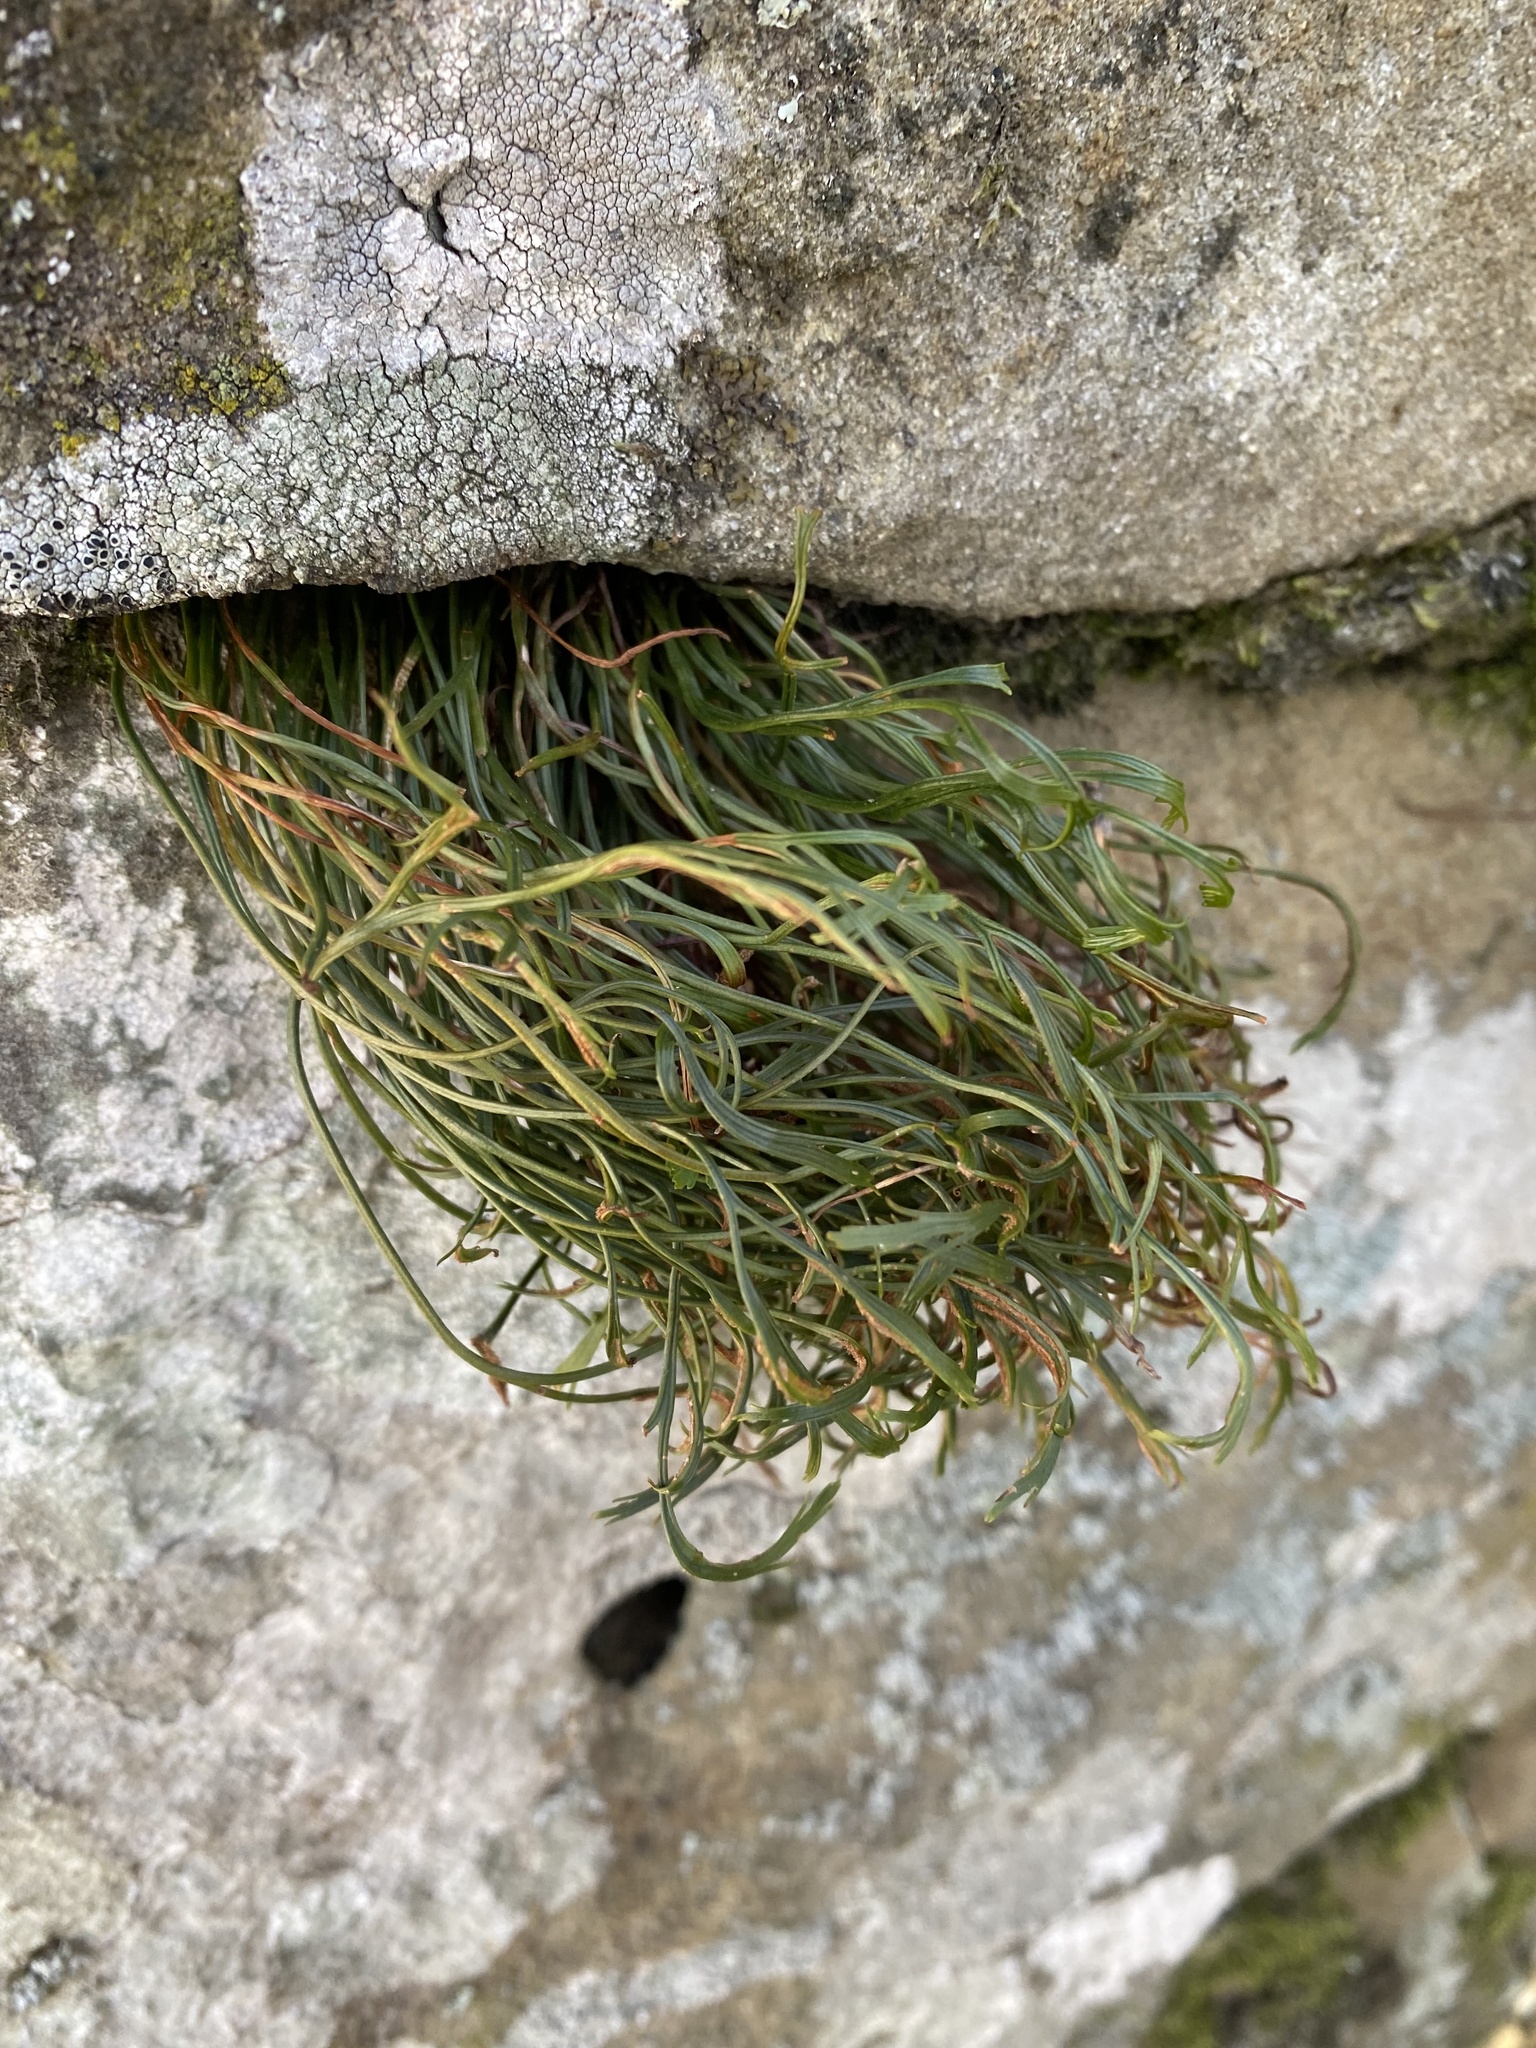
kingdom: Plantae
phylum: Tracheophyta
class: Polypodiopsida
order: Polypodiales
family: Aspleniaceae
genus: Asplenium
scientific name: Asplenium septentrionale
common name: Forked spleenwort
